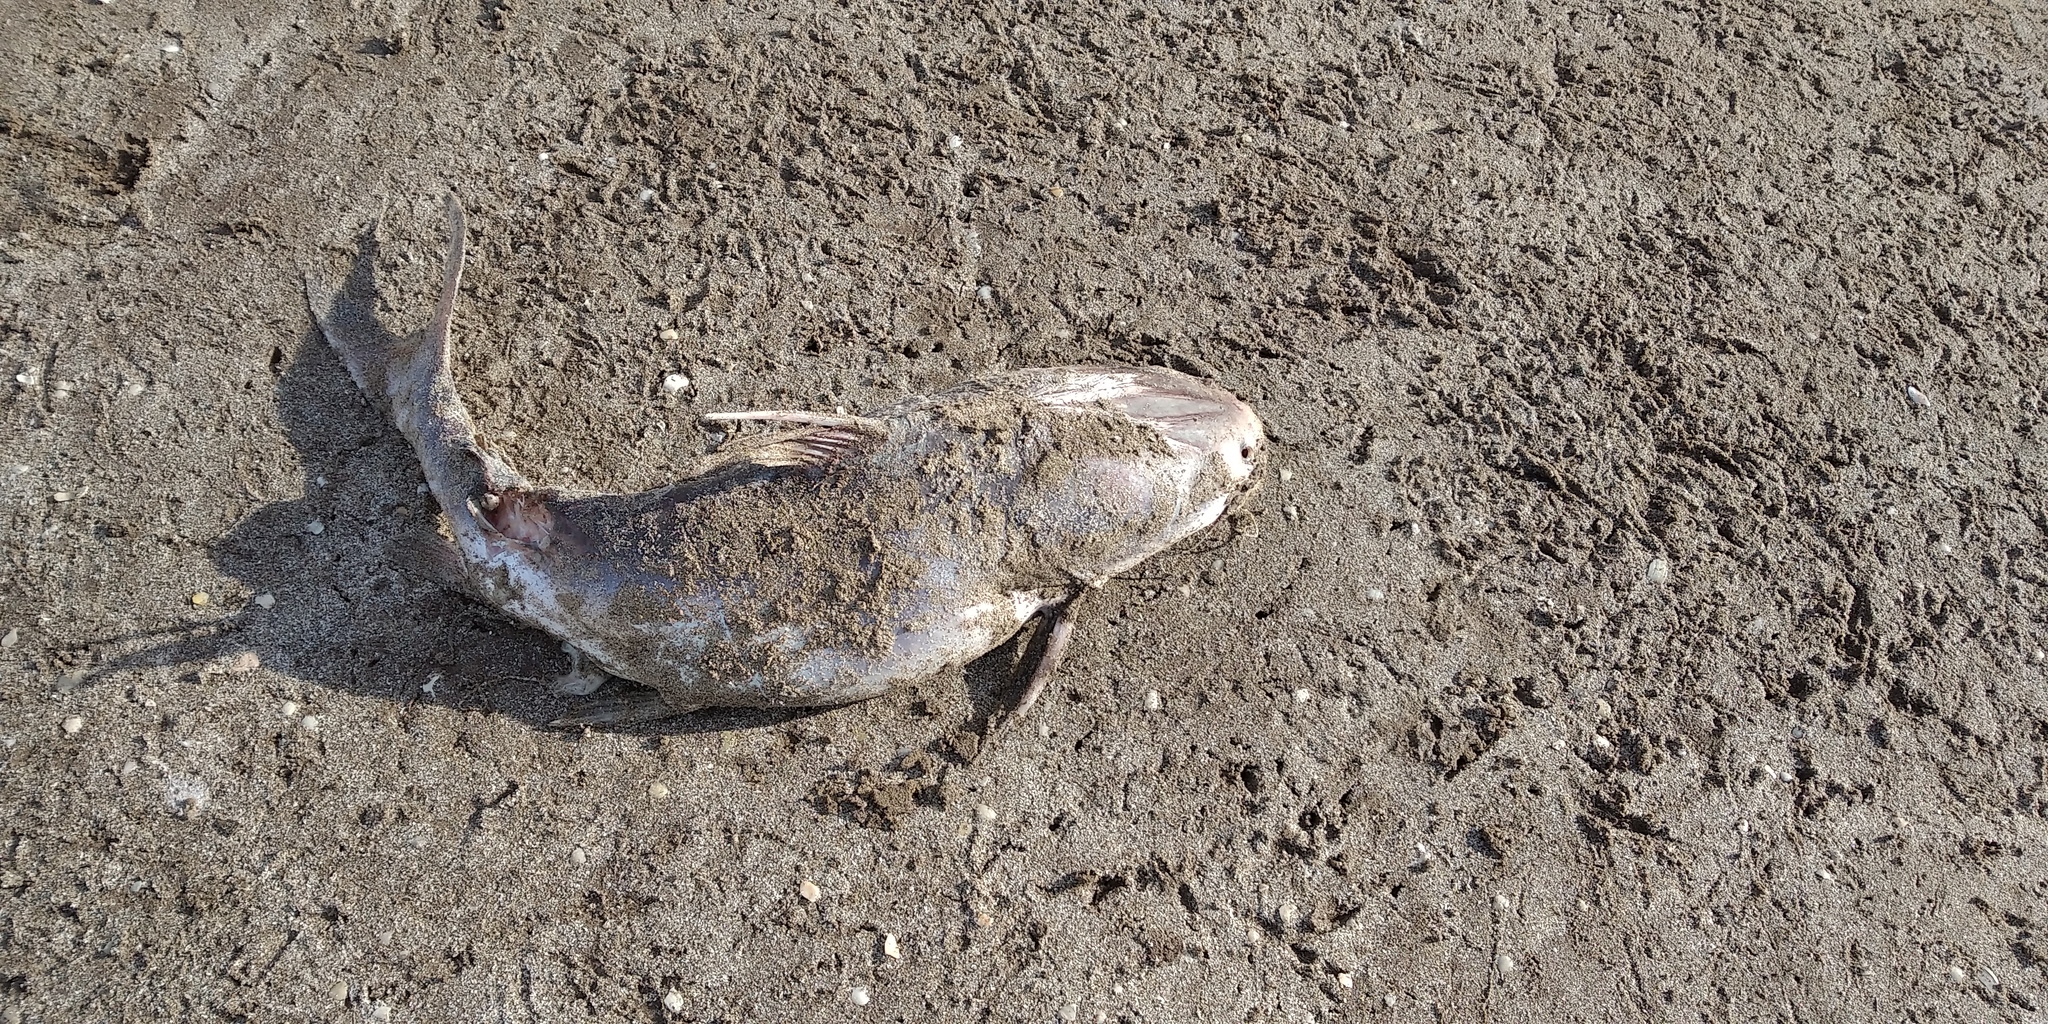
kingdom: Animalia
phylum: Chordata
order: Siluriformes
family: Ariidae
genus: Genidens
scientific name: Genidens barbus
